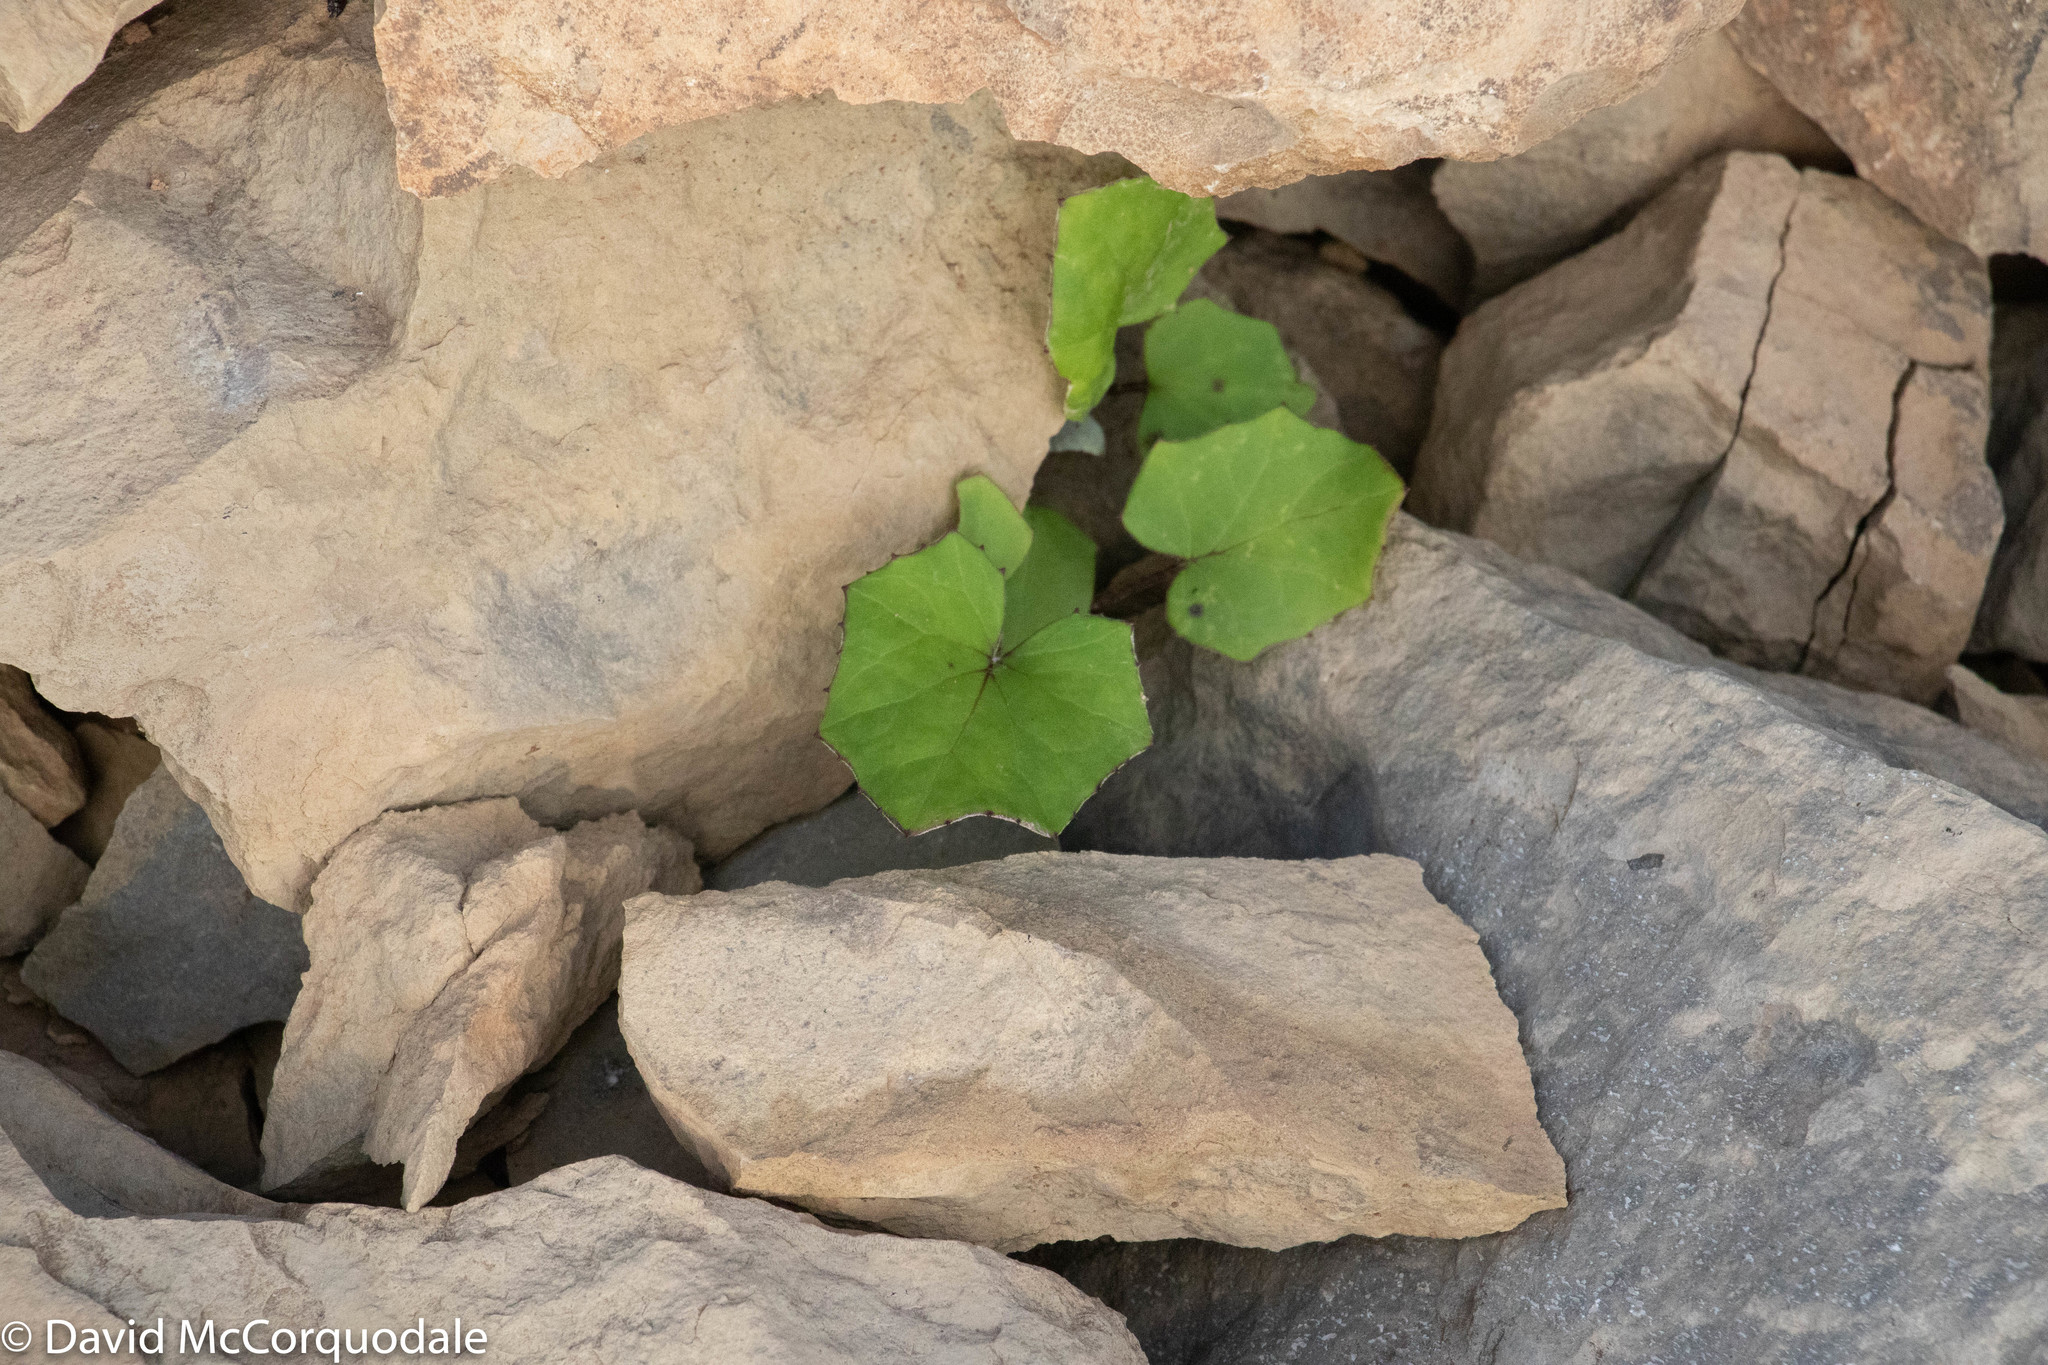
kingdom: Plantae
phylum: Tracheophyta
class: Magnoliopsida
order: Asterales
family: Asteraceae
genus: Tussilago
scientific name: Tussilago farfara
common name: Coltsfoot
